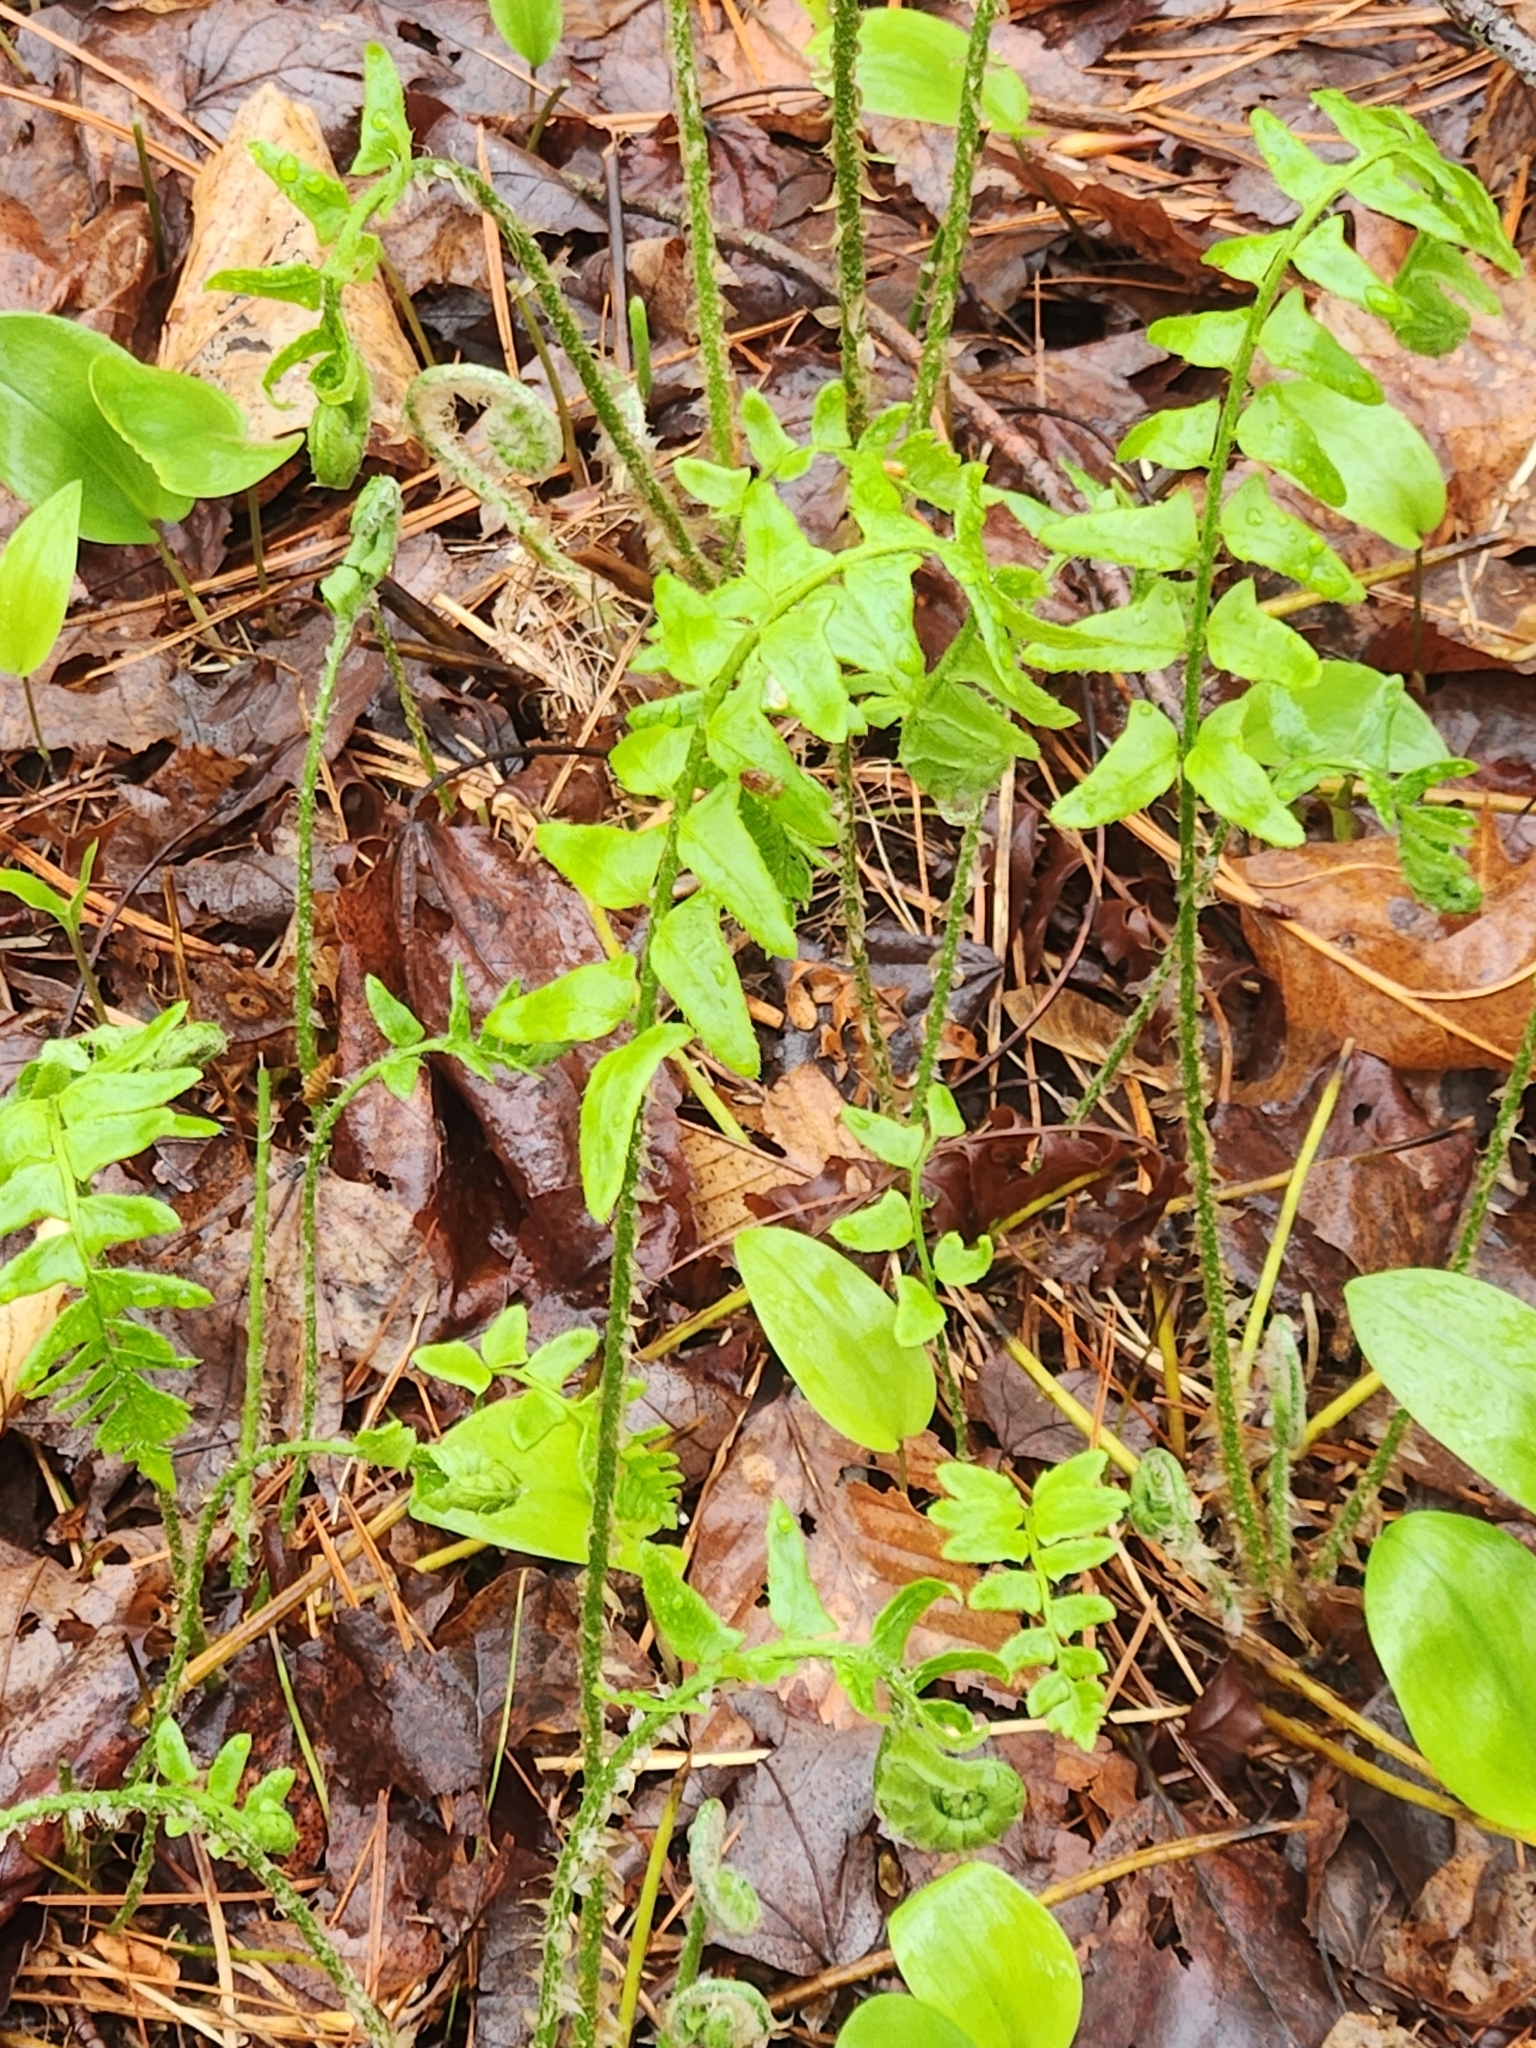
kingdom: Plantae
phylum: Tracheophyta
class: Polypodiopsida
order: Polypodiales
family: Dryopteridaceae
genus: Polystichum
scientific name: Polystichum acrostichoides
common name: Christmas fern
